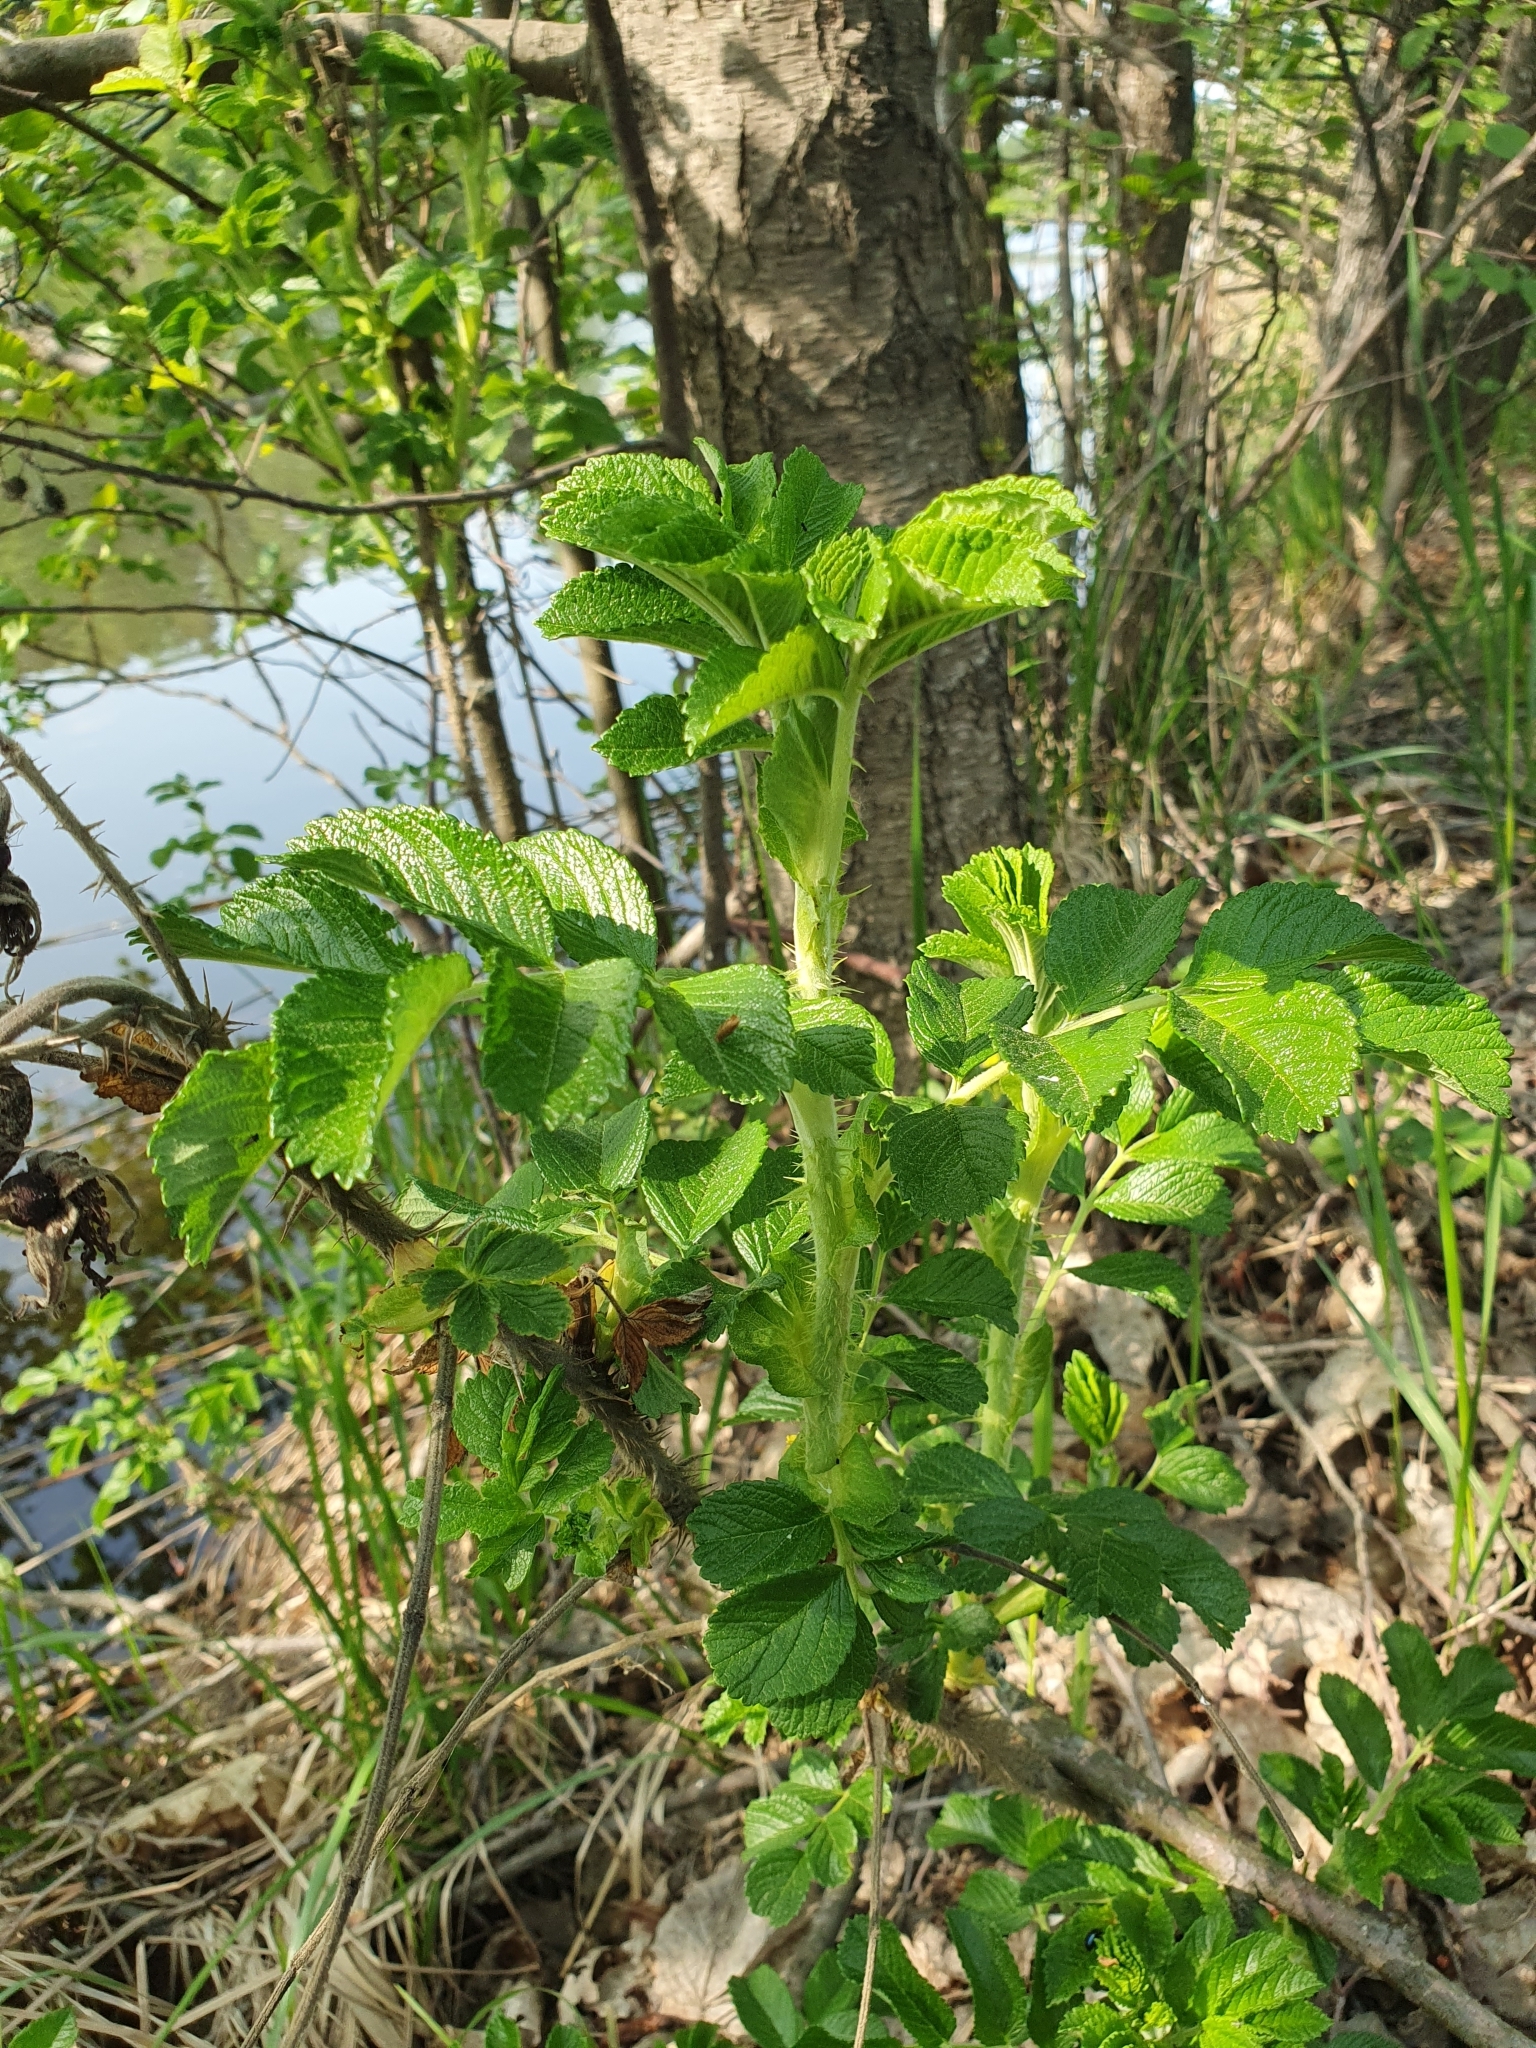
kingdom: Plantae
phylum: Tracheophyta
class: Magnoliopsida
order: Rosales
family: Rosaceae
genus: Rosa
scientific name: Rosa rugosa
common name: Japanese rose
